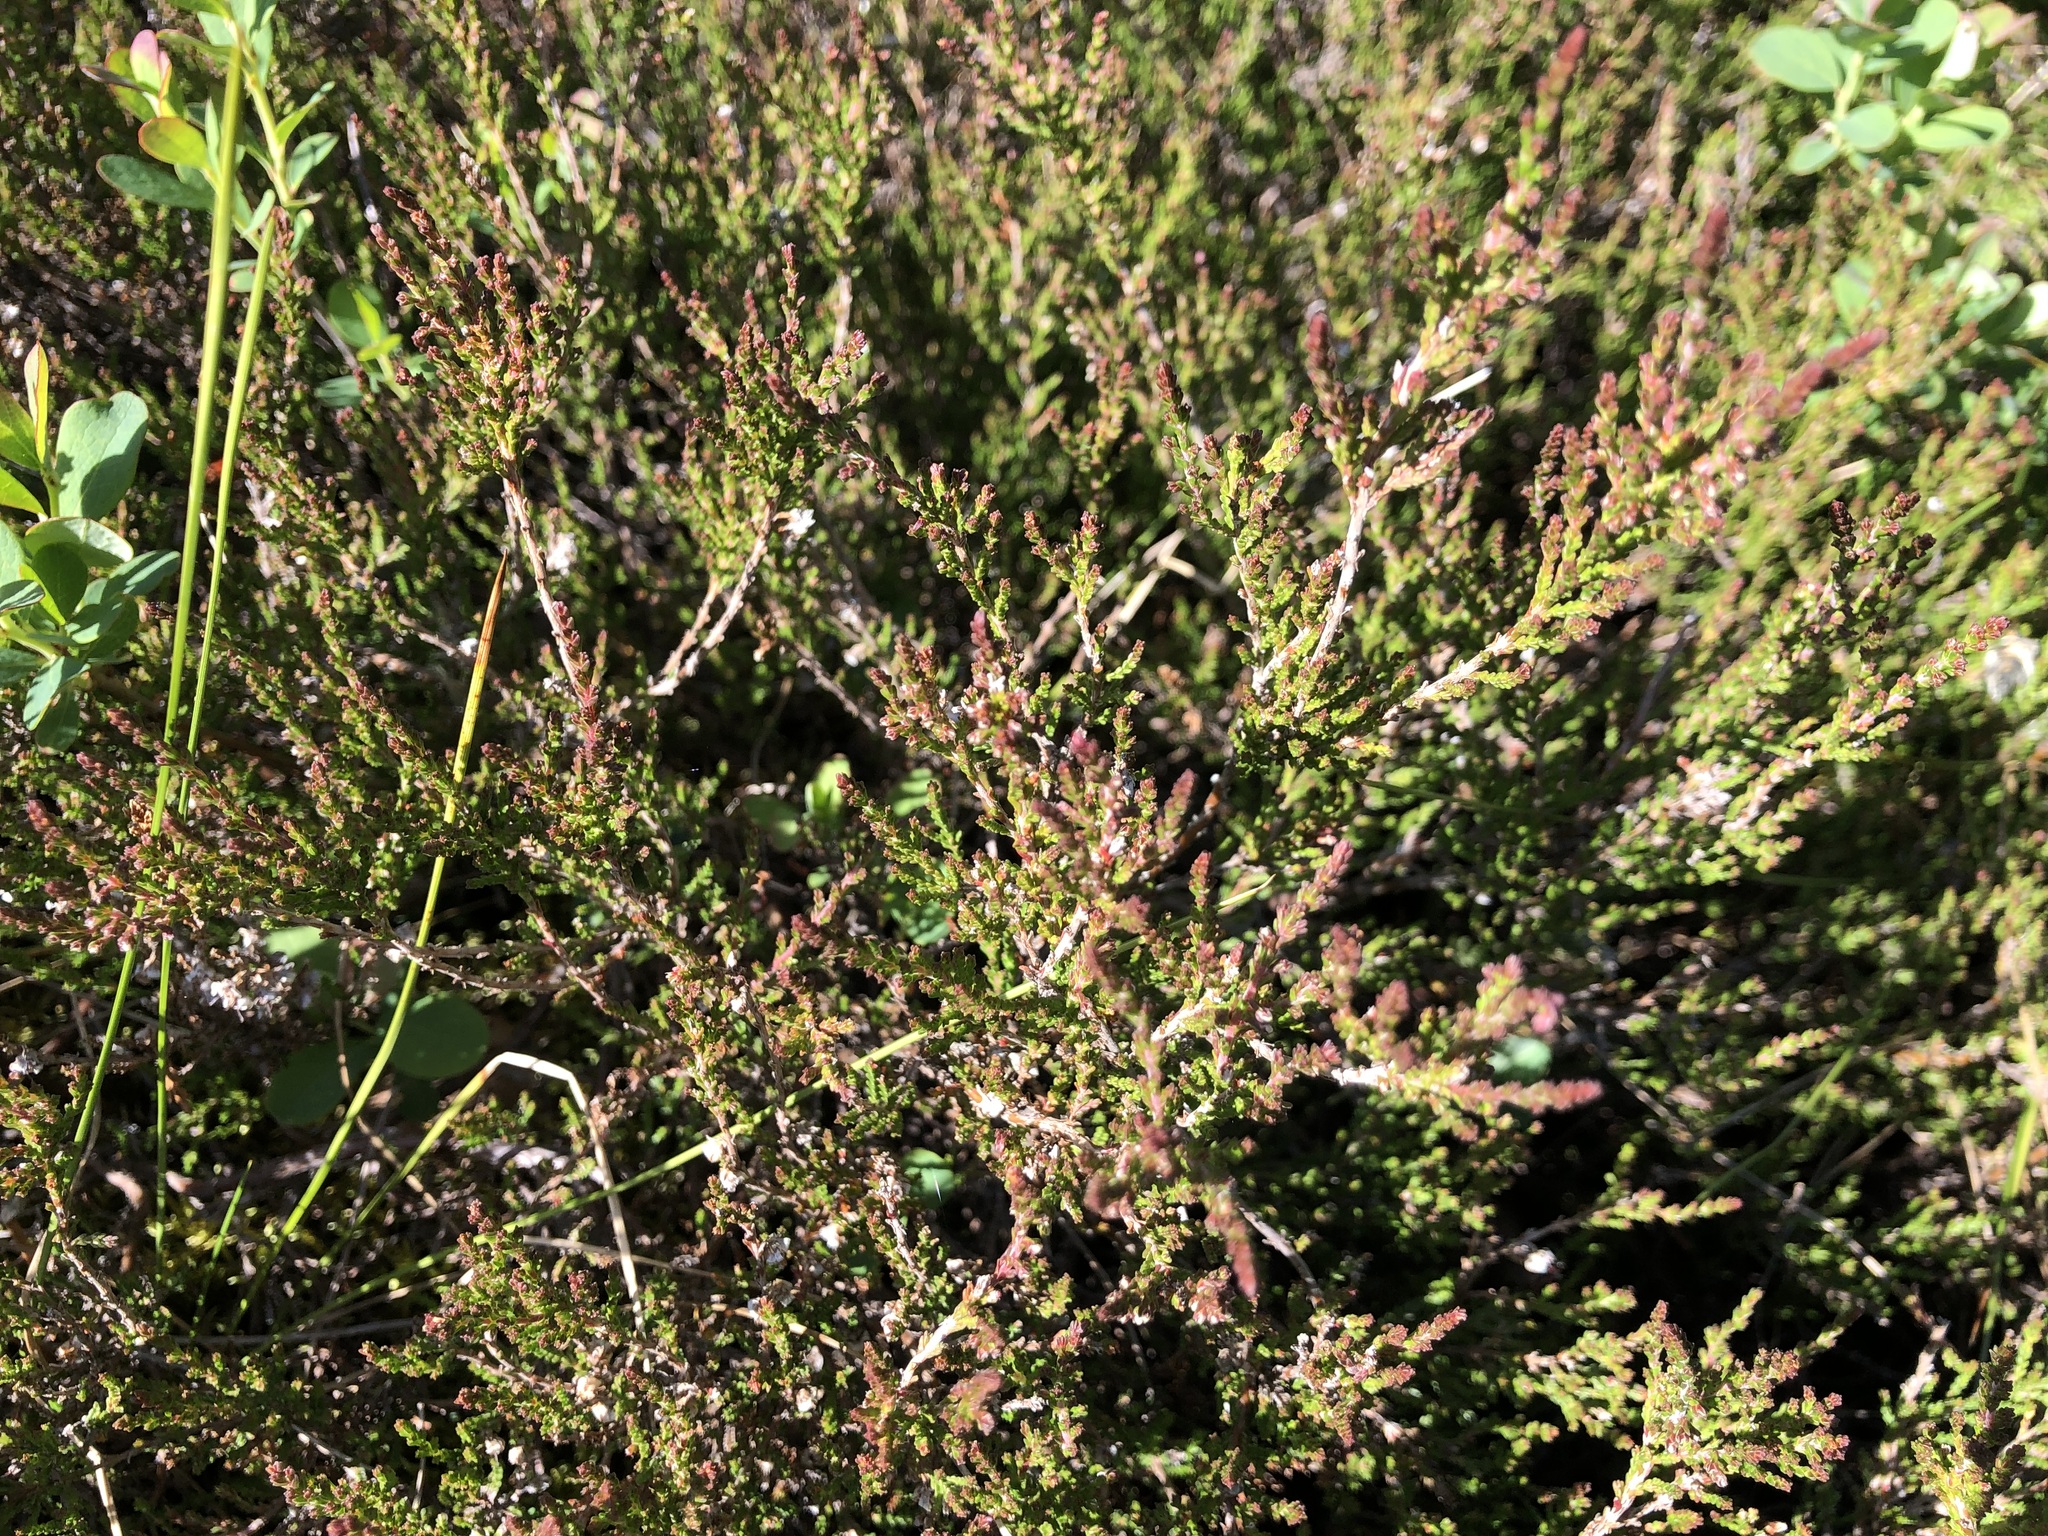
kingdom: Plantae
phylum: Tracheophyta
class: Magnoliopsida
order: Ericales
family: Ericaceae
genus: Calluna
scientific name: Calluna vulgaris
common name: Heather
